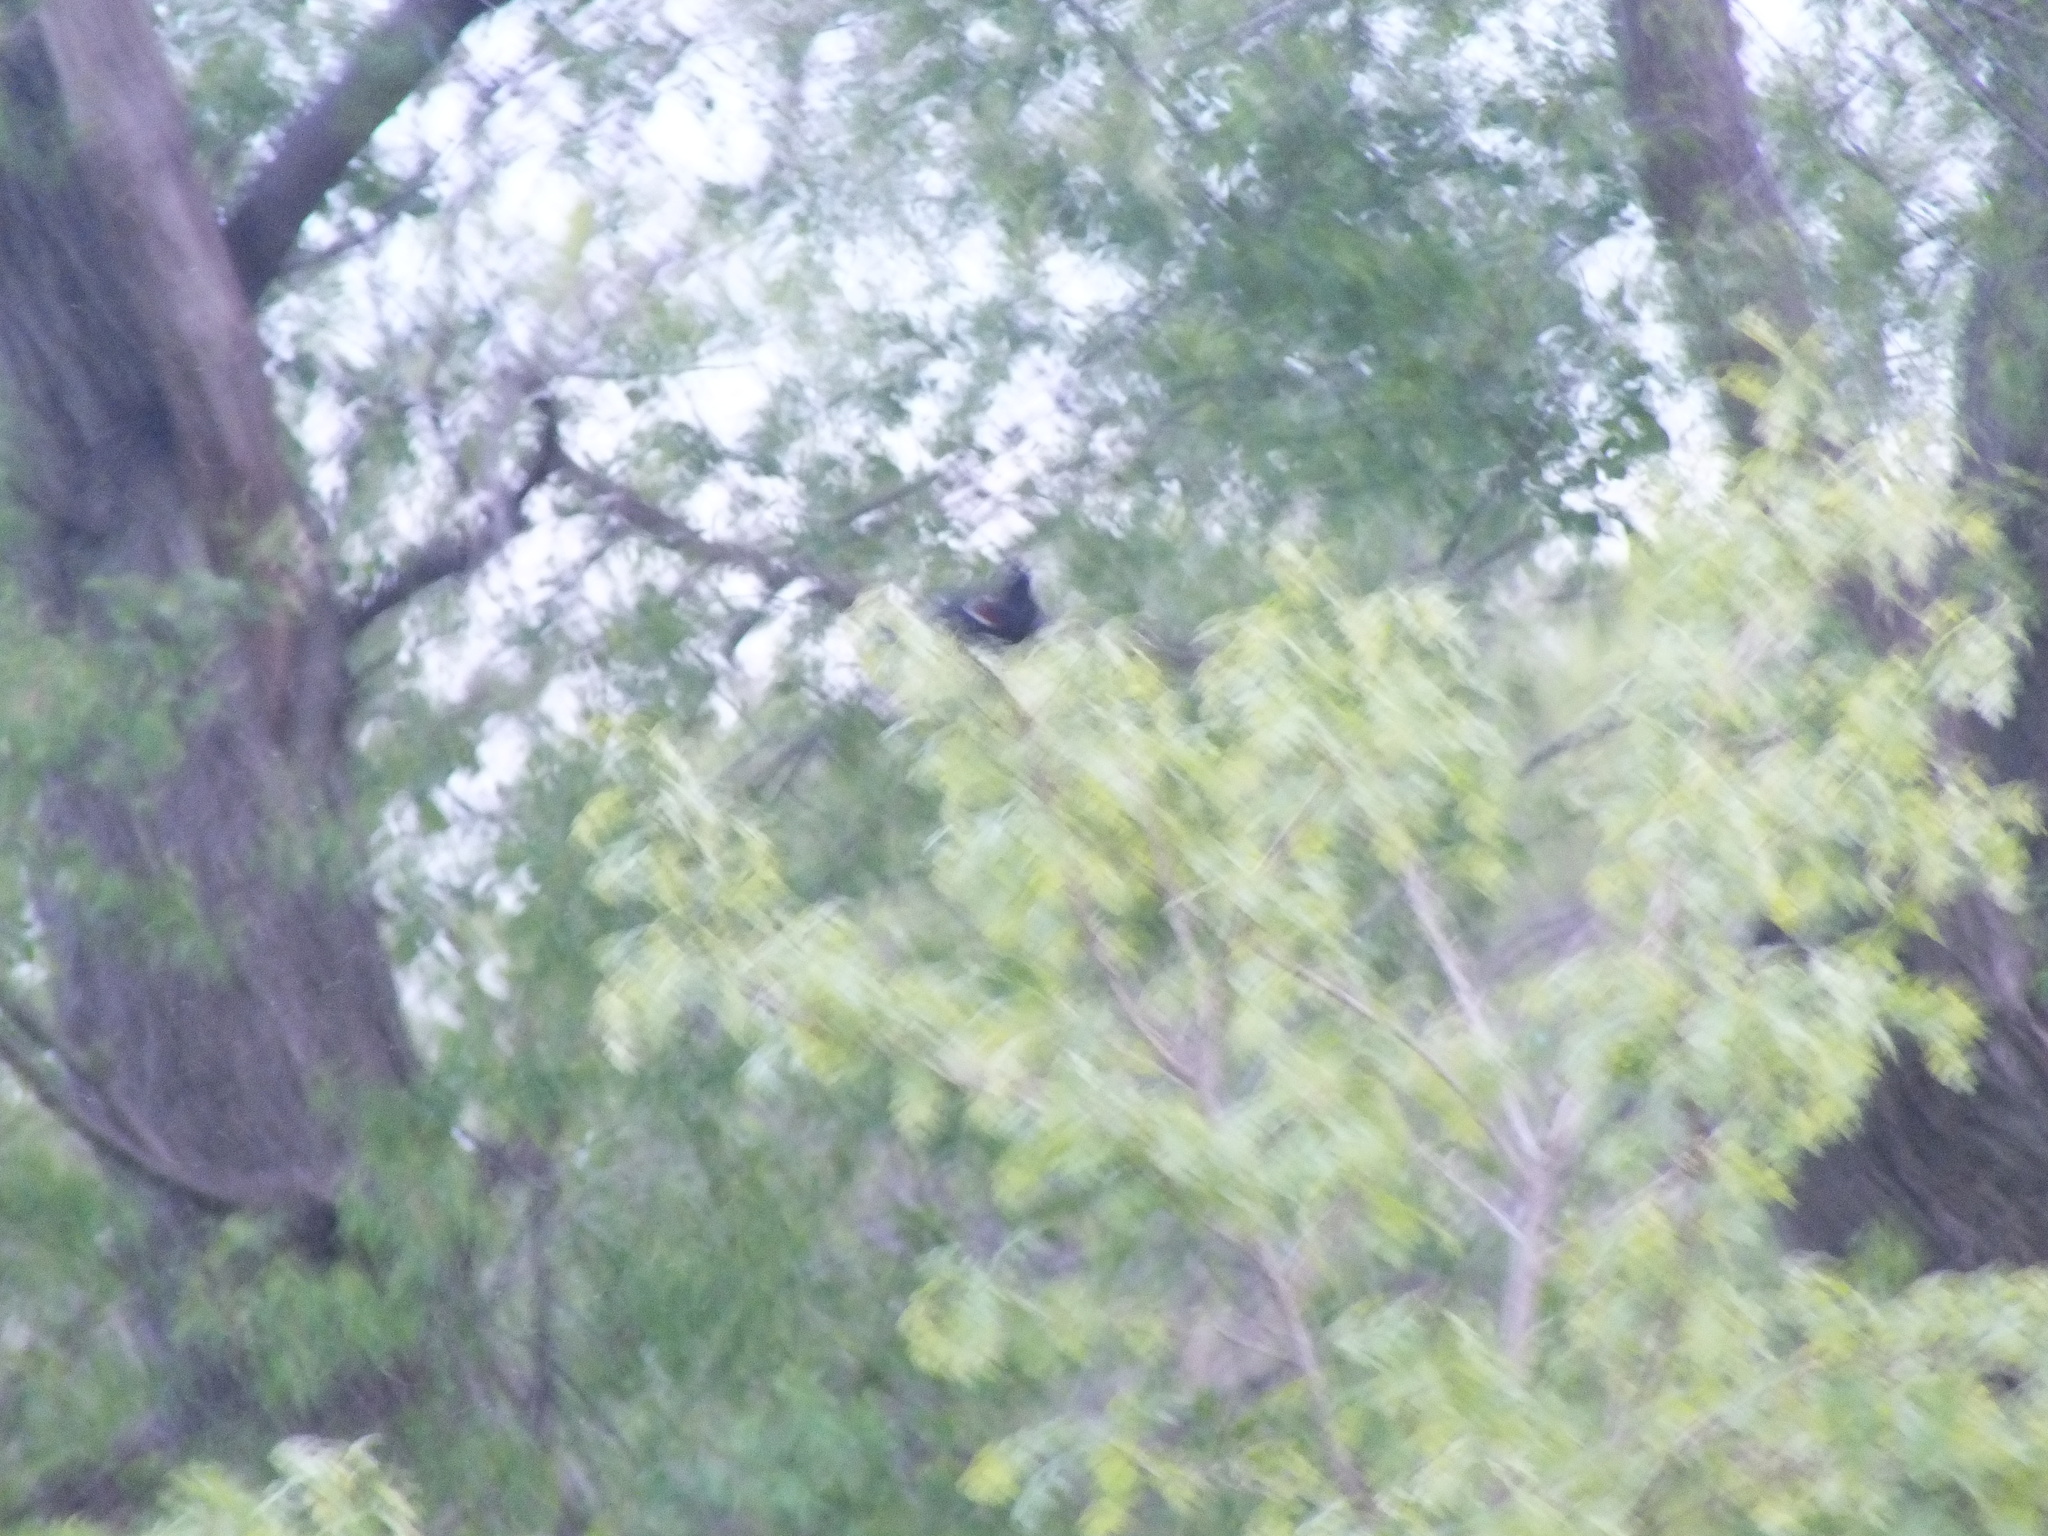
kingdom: Animalia
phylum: Chordata
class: Aves
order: Passeriformes
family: Icteridae
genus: Agelaius
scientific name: Agelaius phoeniceus
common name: Red-winged blackbird
